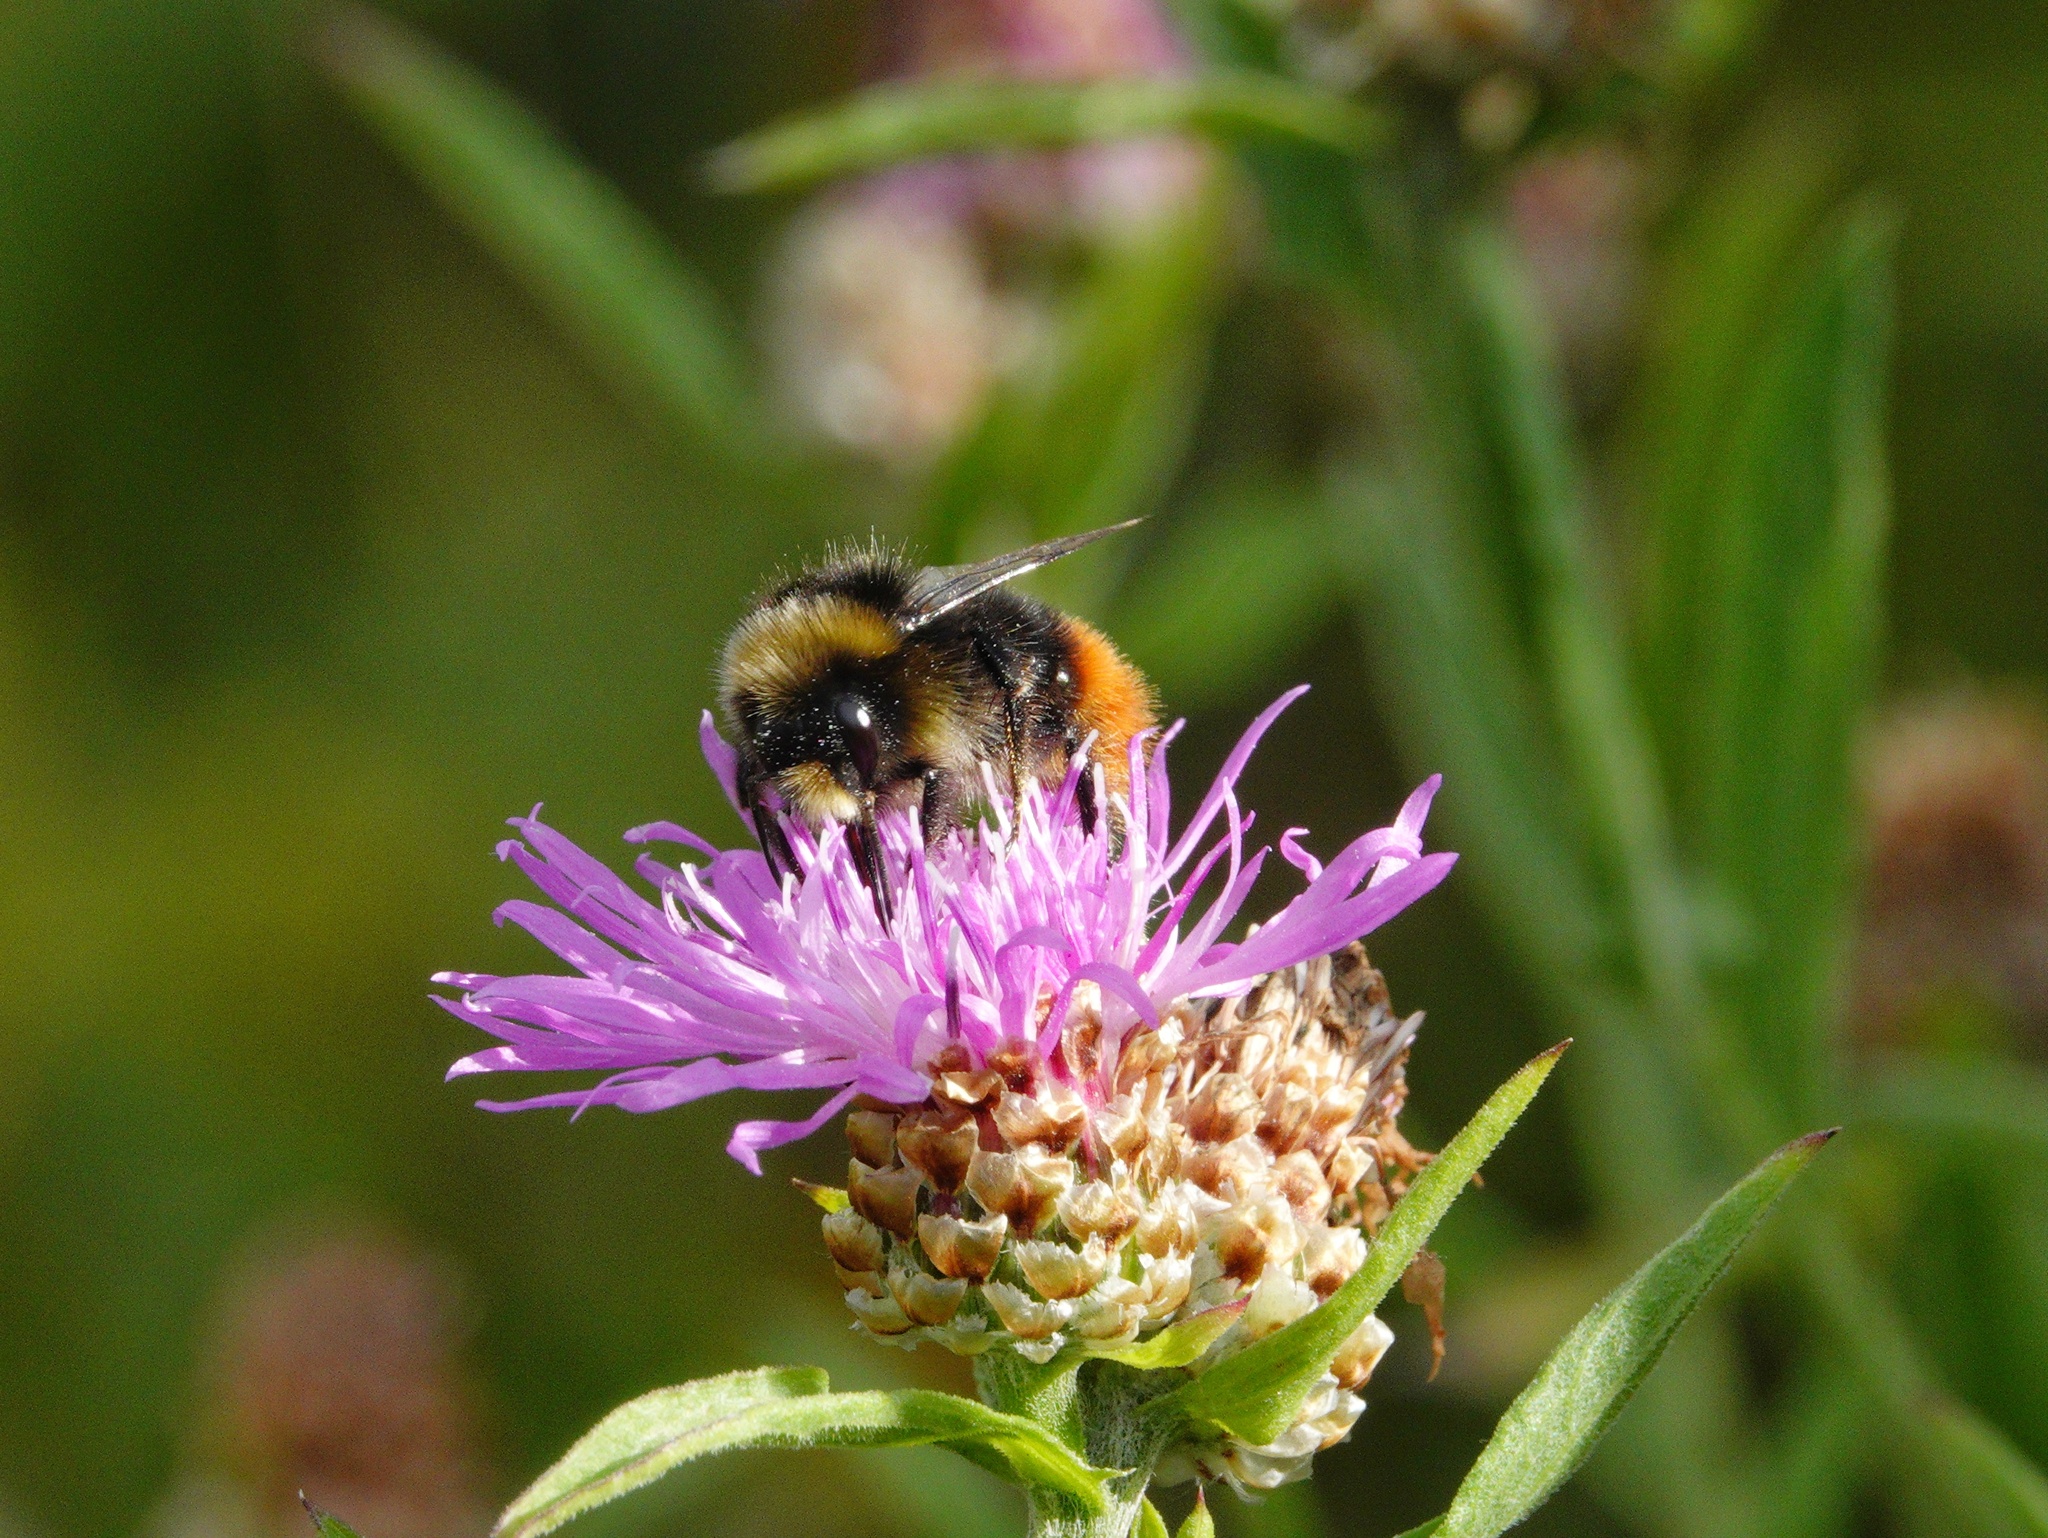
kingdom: Animalia
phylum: Arthropoda
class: Insecta
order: Hymenoptera
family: Apidae
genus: Bombus
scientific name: Bombus lapidarius
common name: Large red-tailed humble-bee
